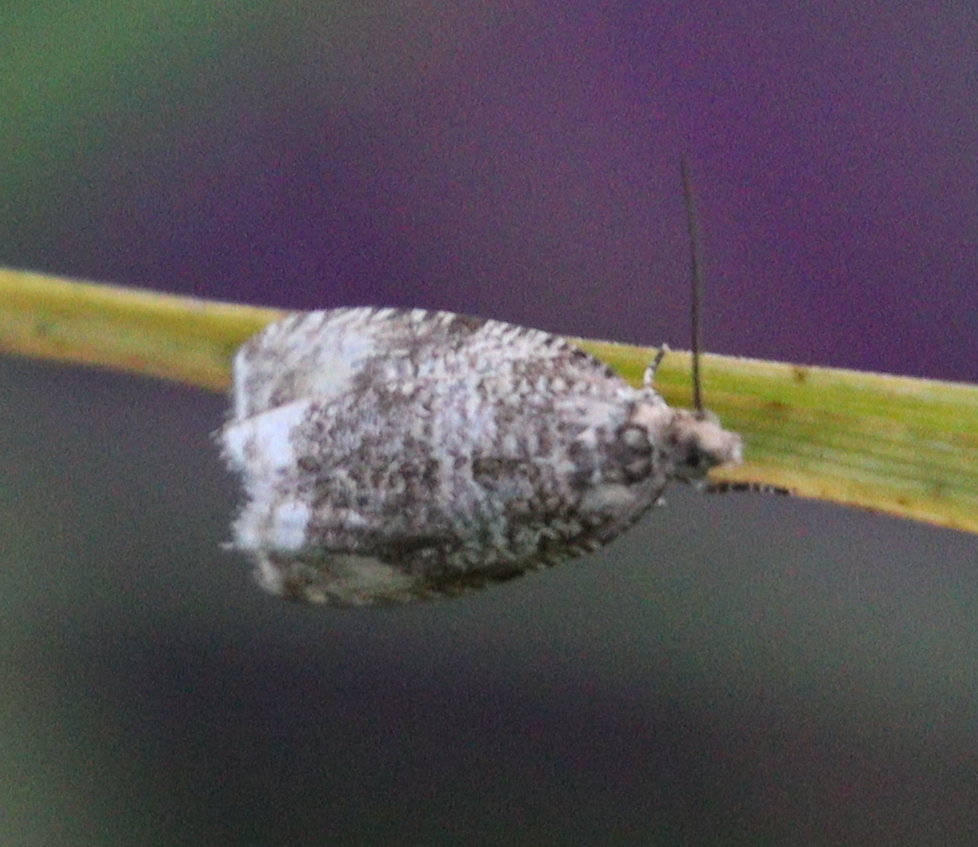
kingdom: Animalia
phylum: Arthropoda
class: Insecta
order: Lepidoptera
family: Tortricidae
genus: Syricoris
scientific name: Syricoris lacunana
